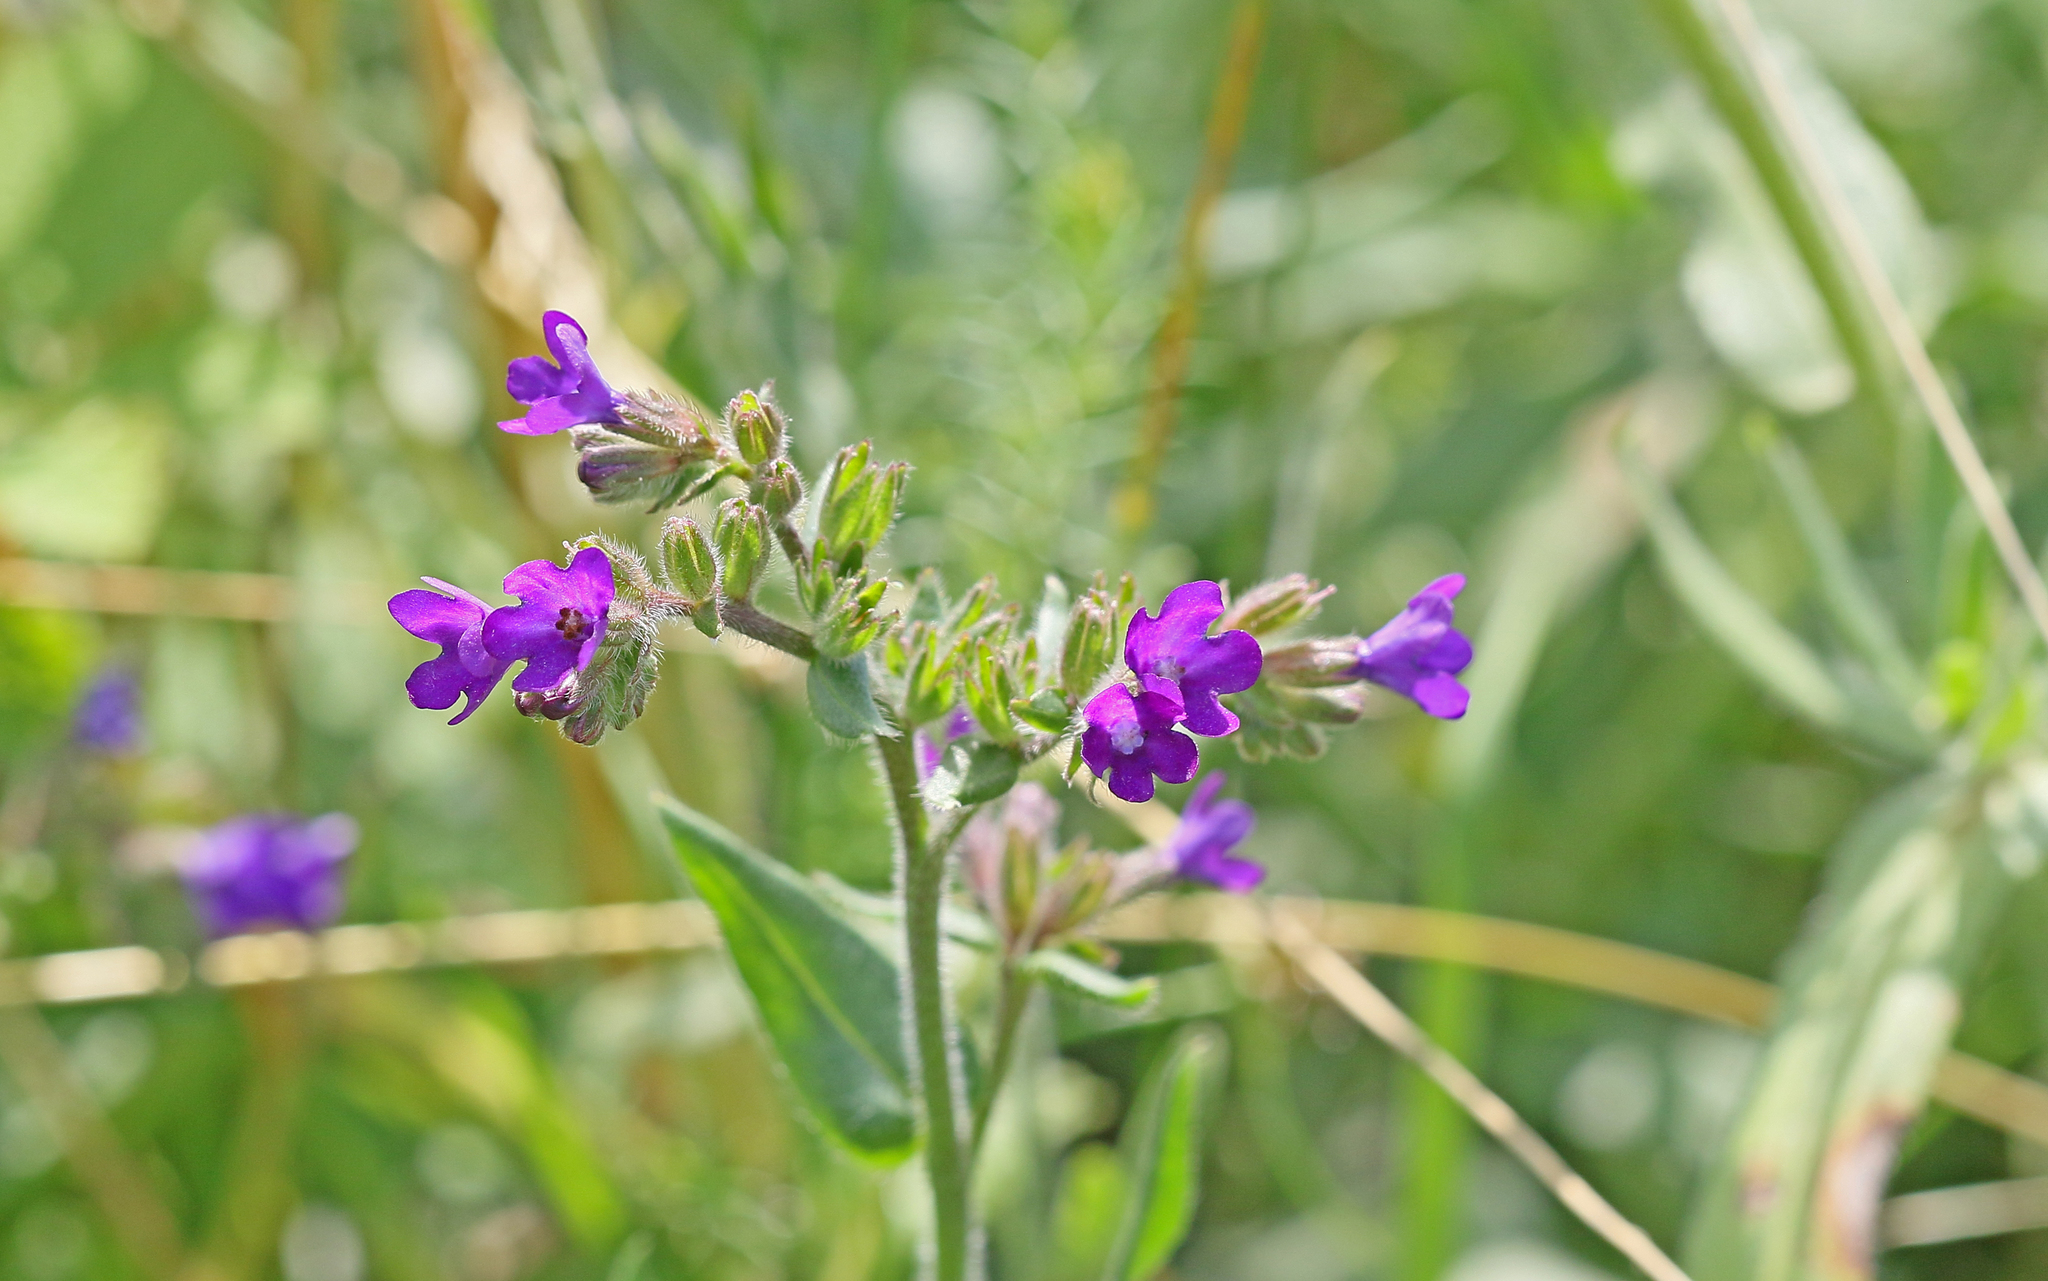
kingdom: Plantae
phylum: Tracheophyta
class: Magnoliopsida
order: Boraginales
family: Boraginaceae
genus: Anchusa
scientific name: Anchusa officinalis
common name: Alkanet
